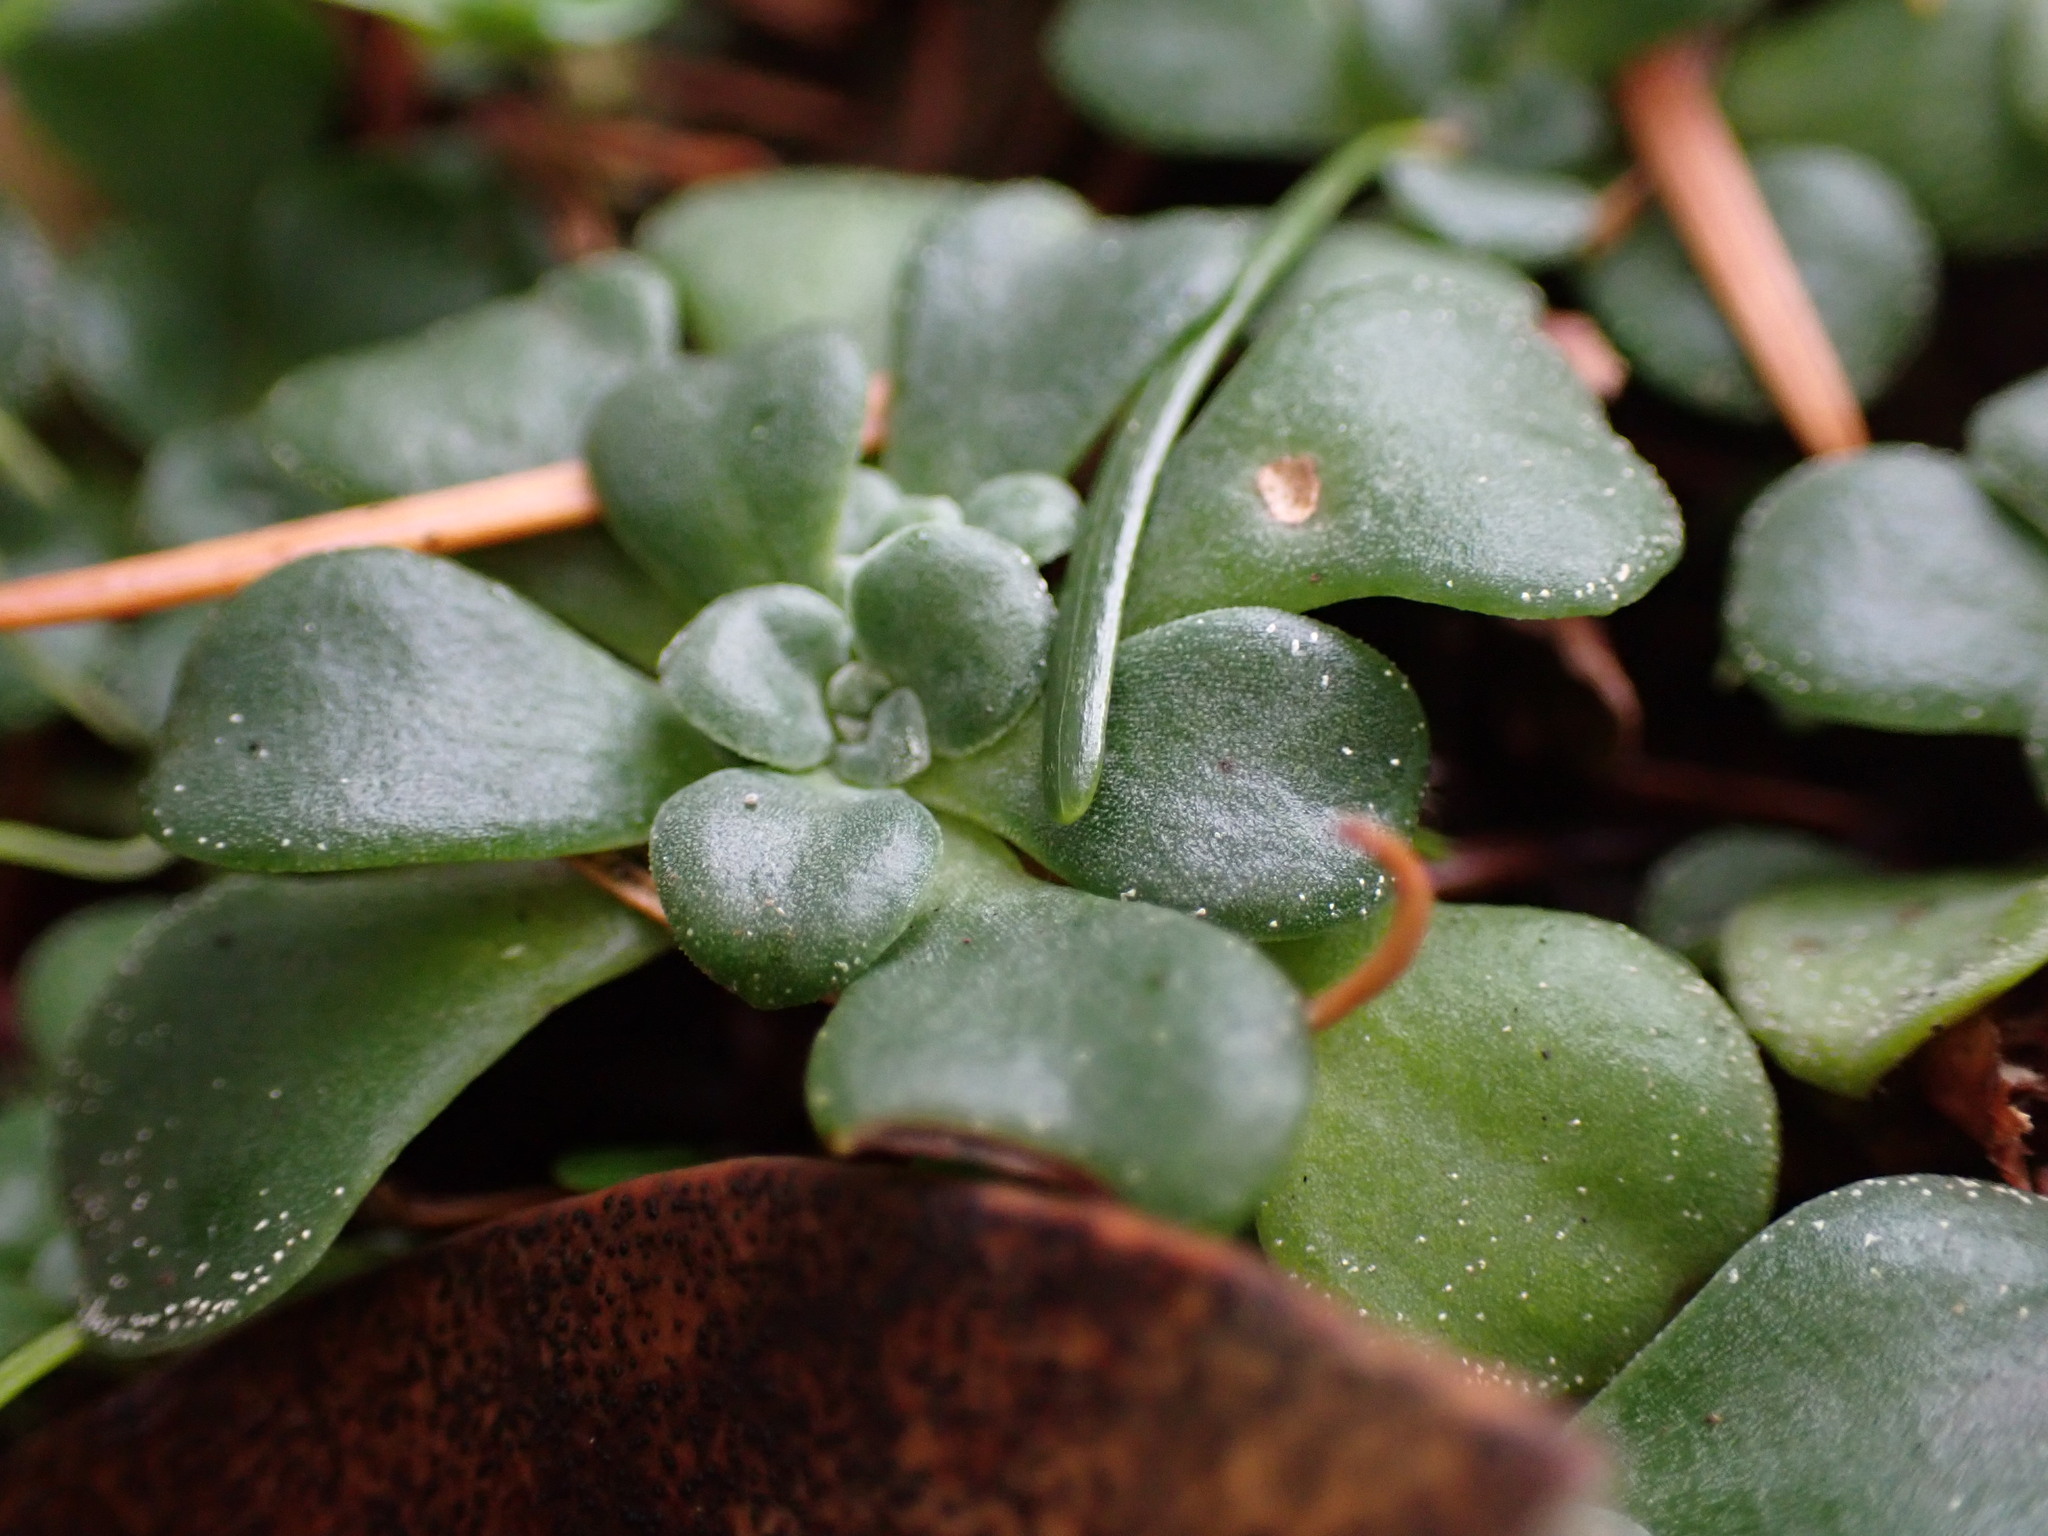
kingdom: Plantae
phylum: Tracheophyta
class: Magnoliopsida
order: Saxifragales
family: Crassulaceae
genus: Sedum
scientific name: Sedum spathulifolium
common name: Colorado stonecrop
